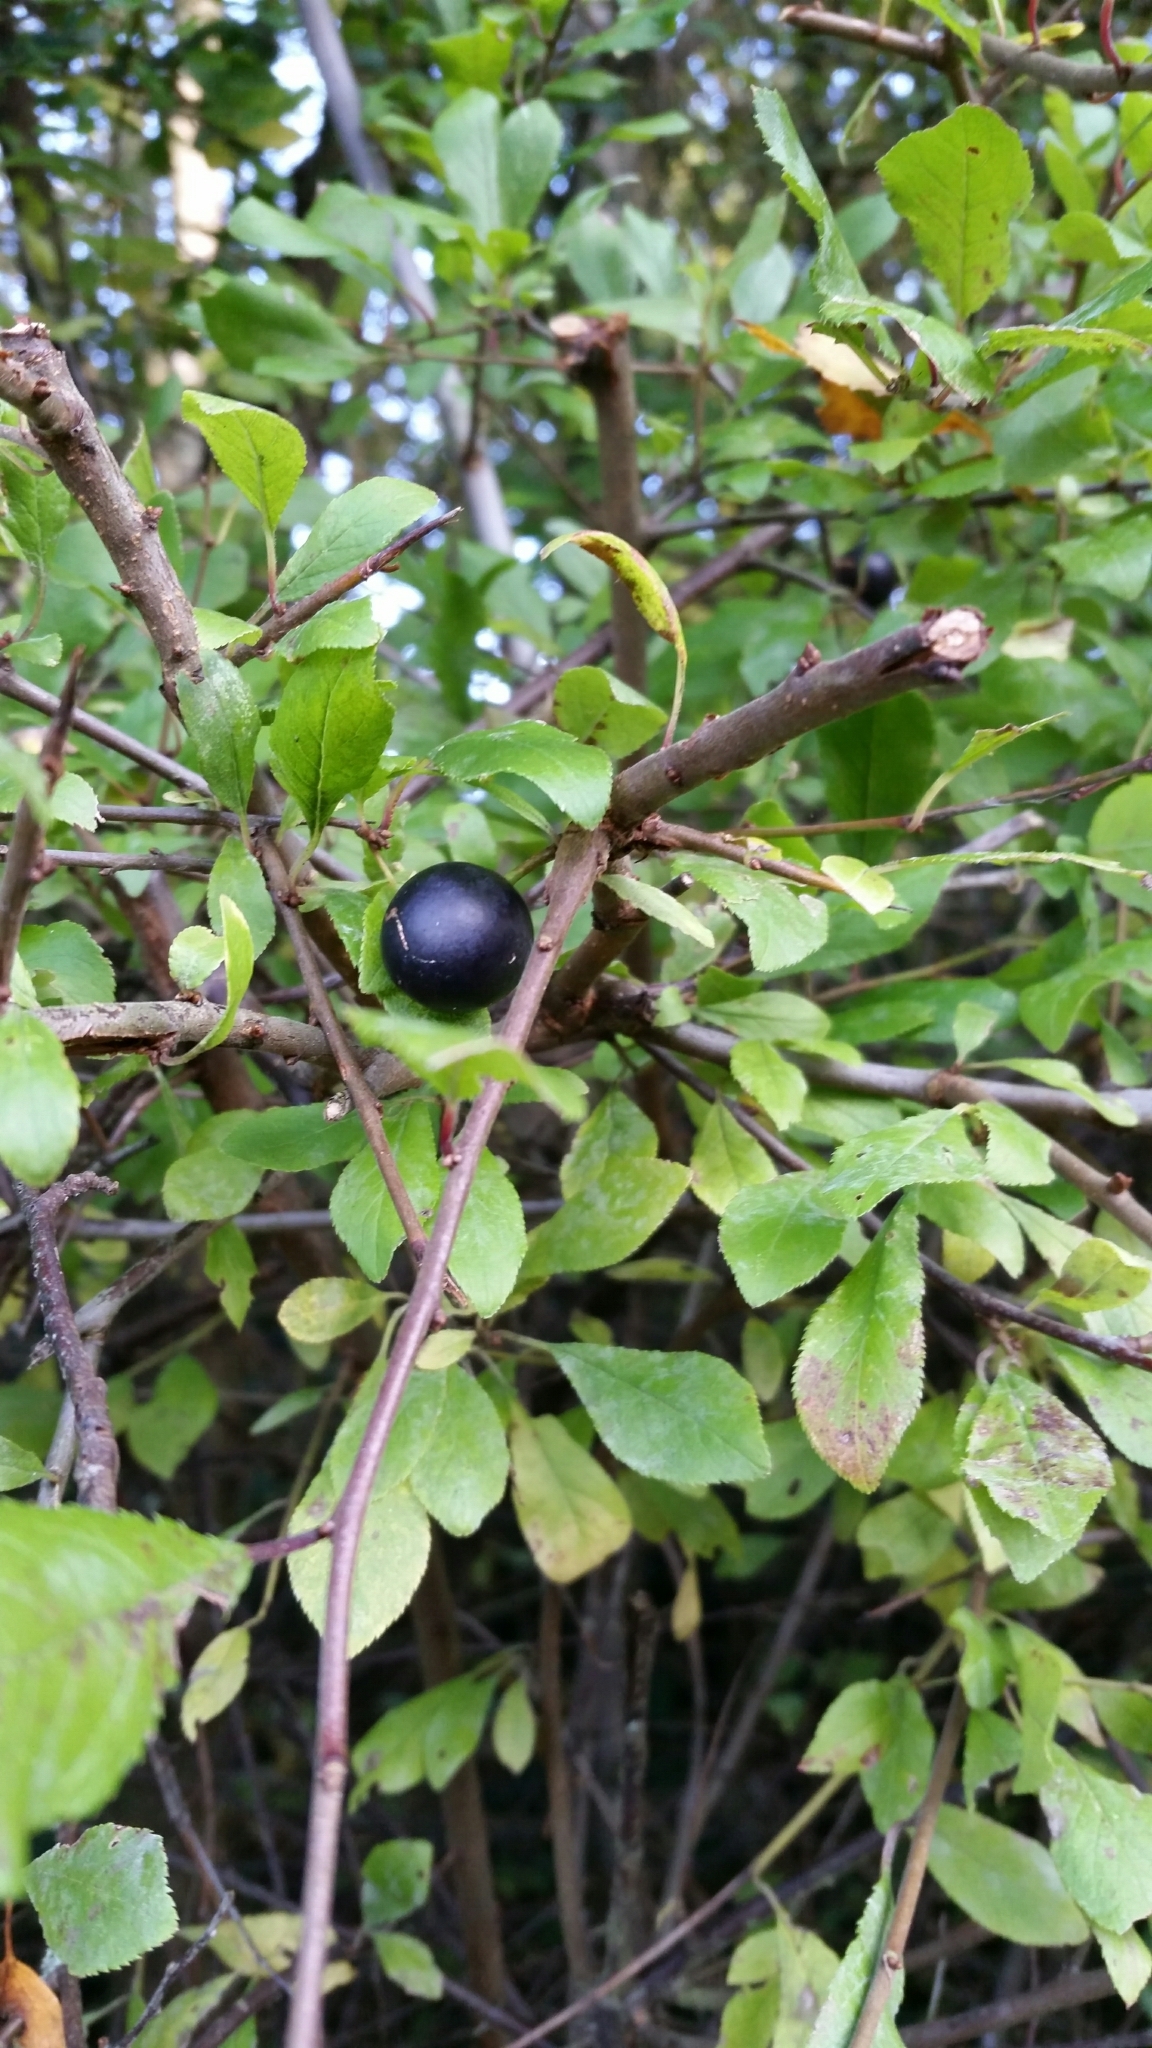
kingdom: Plantae
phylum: Tracheophyta
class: Magnoliopsida
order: Rosales
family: Rosaceae
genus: Prunus
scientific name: Prunus spinosa
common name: Blackthorn
